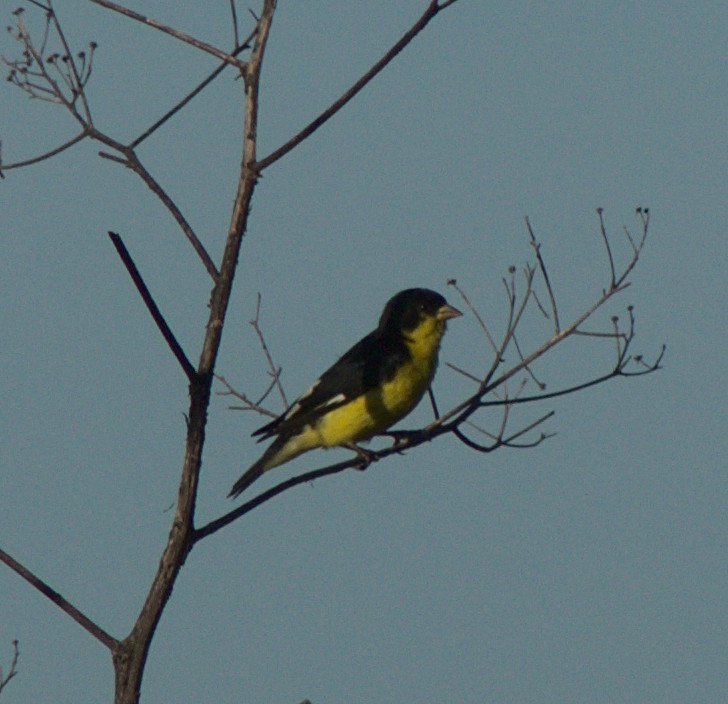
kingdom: Animalia
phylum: Chordata
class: Aves
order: Passeriformes
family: Fringillidae
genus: Spinus
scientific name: Spinus psaltria
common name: Lesser goldfinch
